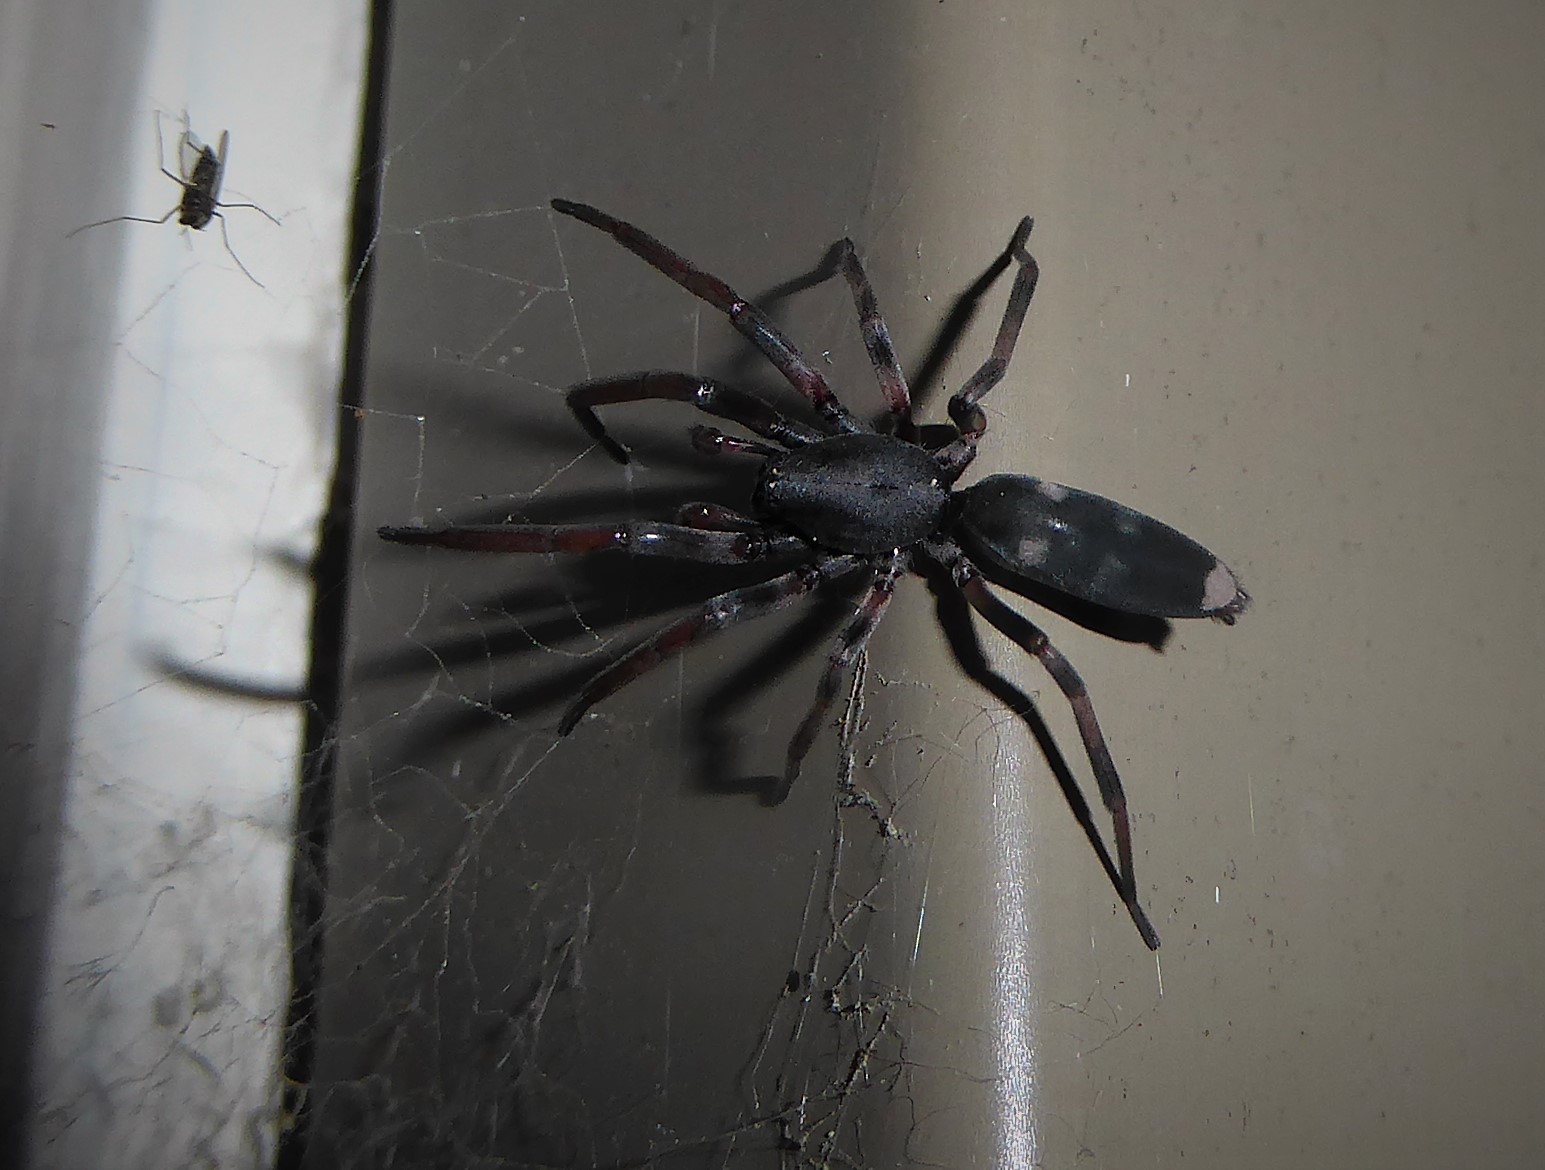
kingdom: Animalia
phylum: Arthropoda
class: Arachnida
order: Araneae
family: Lamponidae
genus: Lampona
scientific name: Lampona cylindrata
